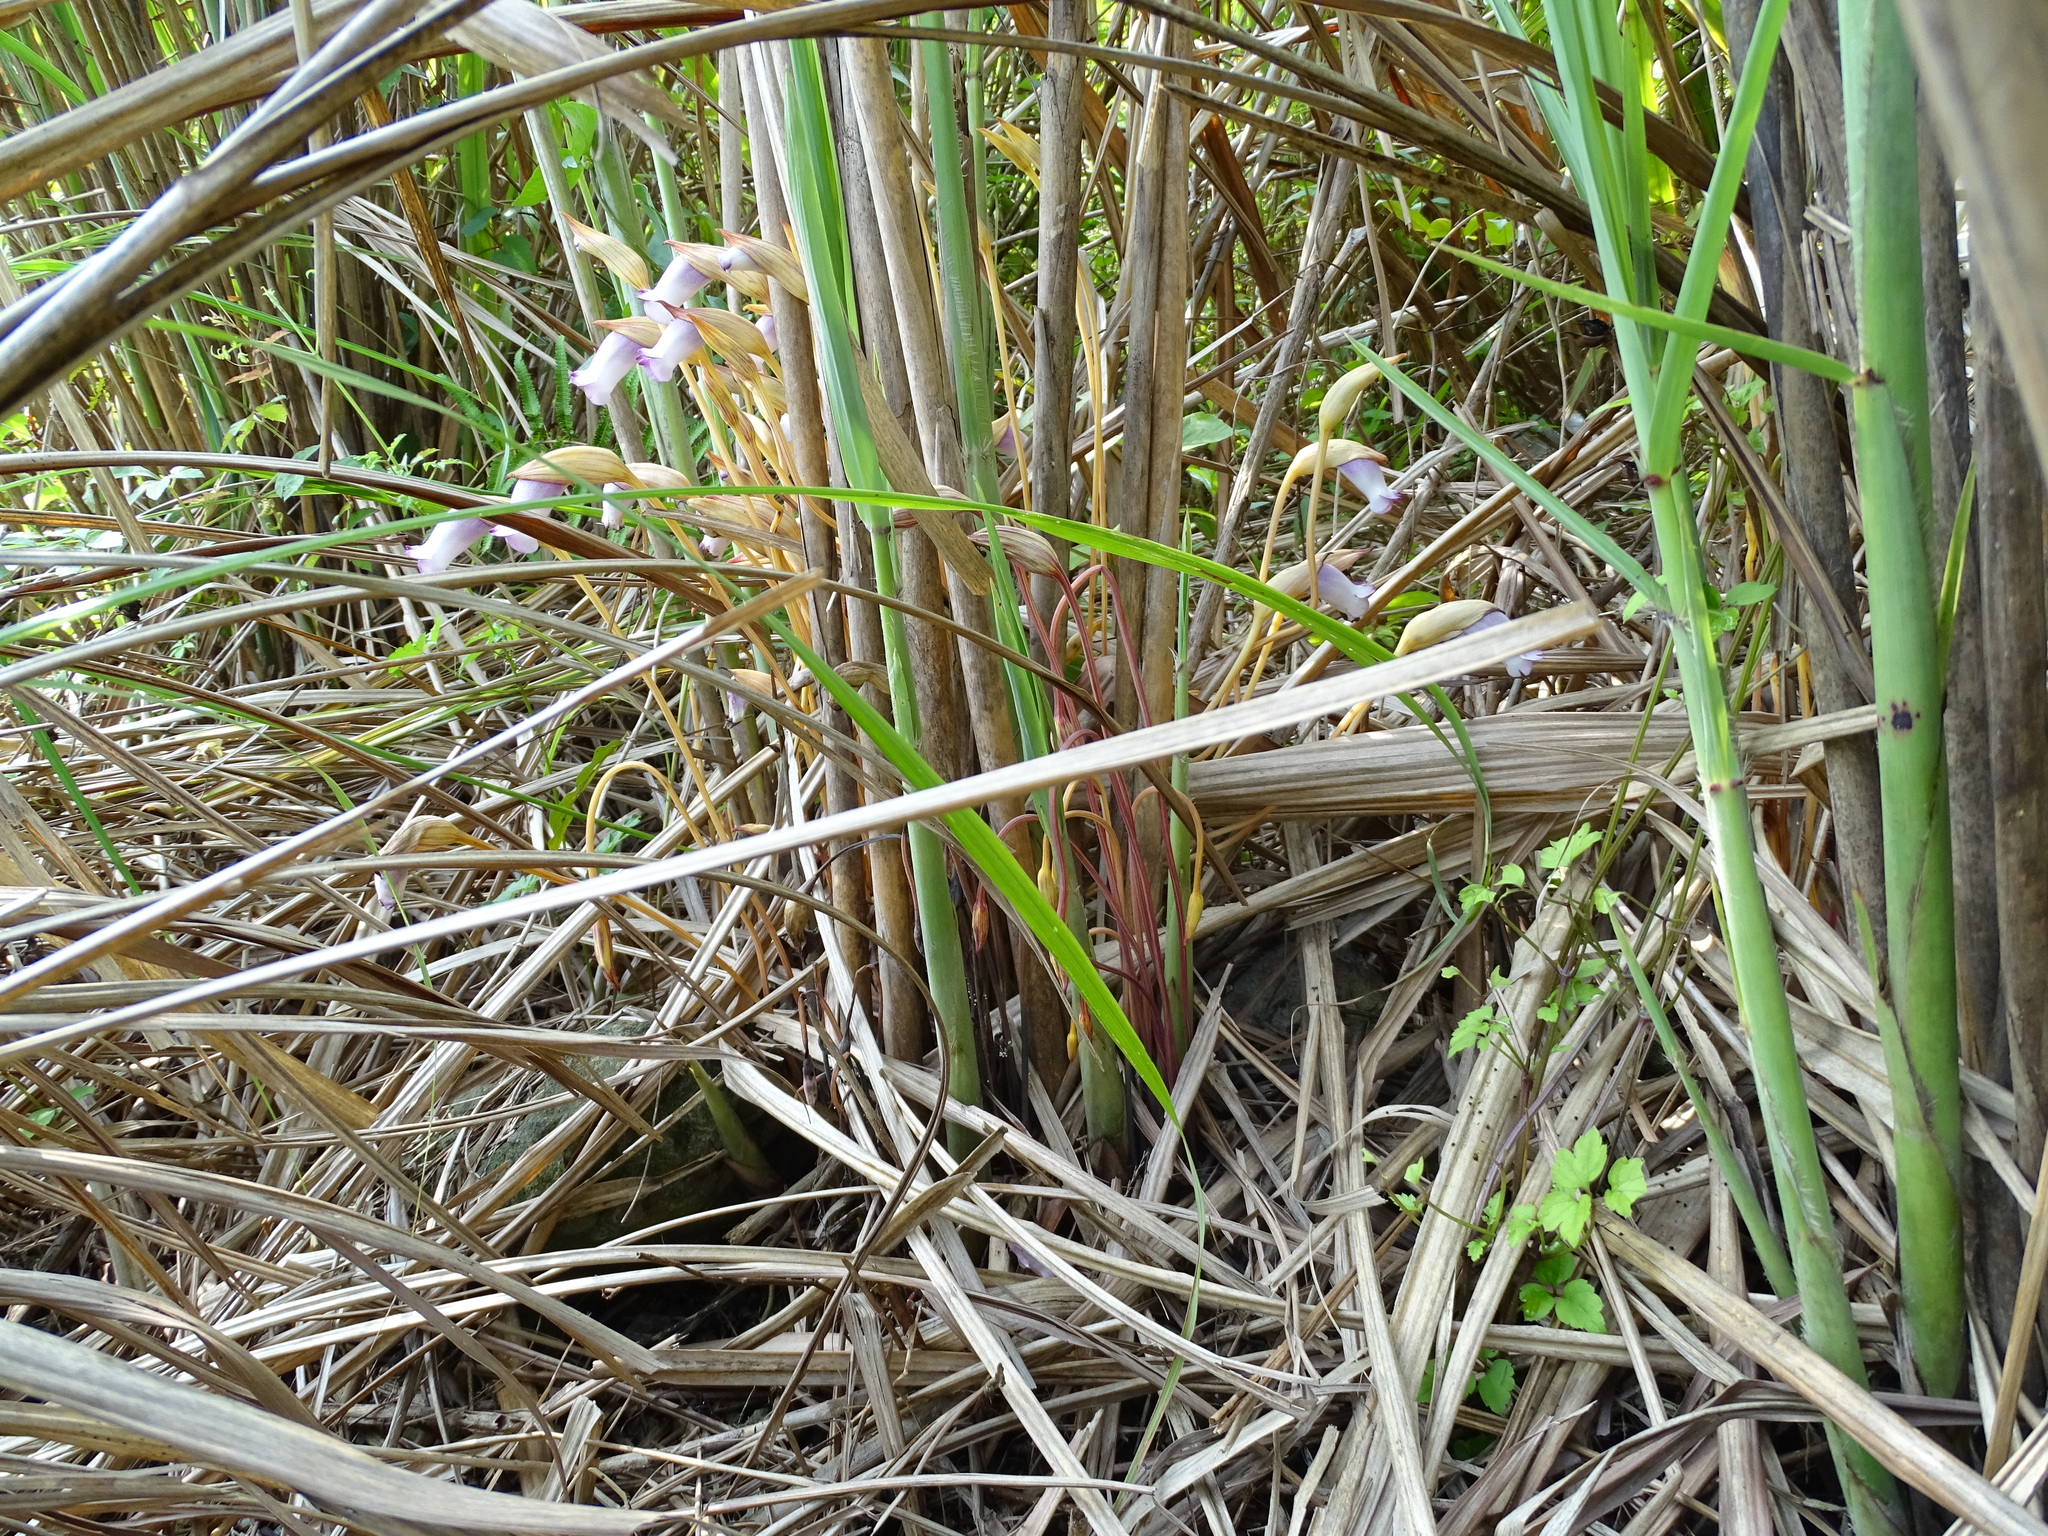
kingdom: Plantae
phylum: Tracheophyta
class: Magnoliopsida
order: Lamiales
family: Orobanchaceae
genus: Aeginetia
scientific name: Aeginetia indica
